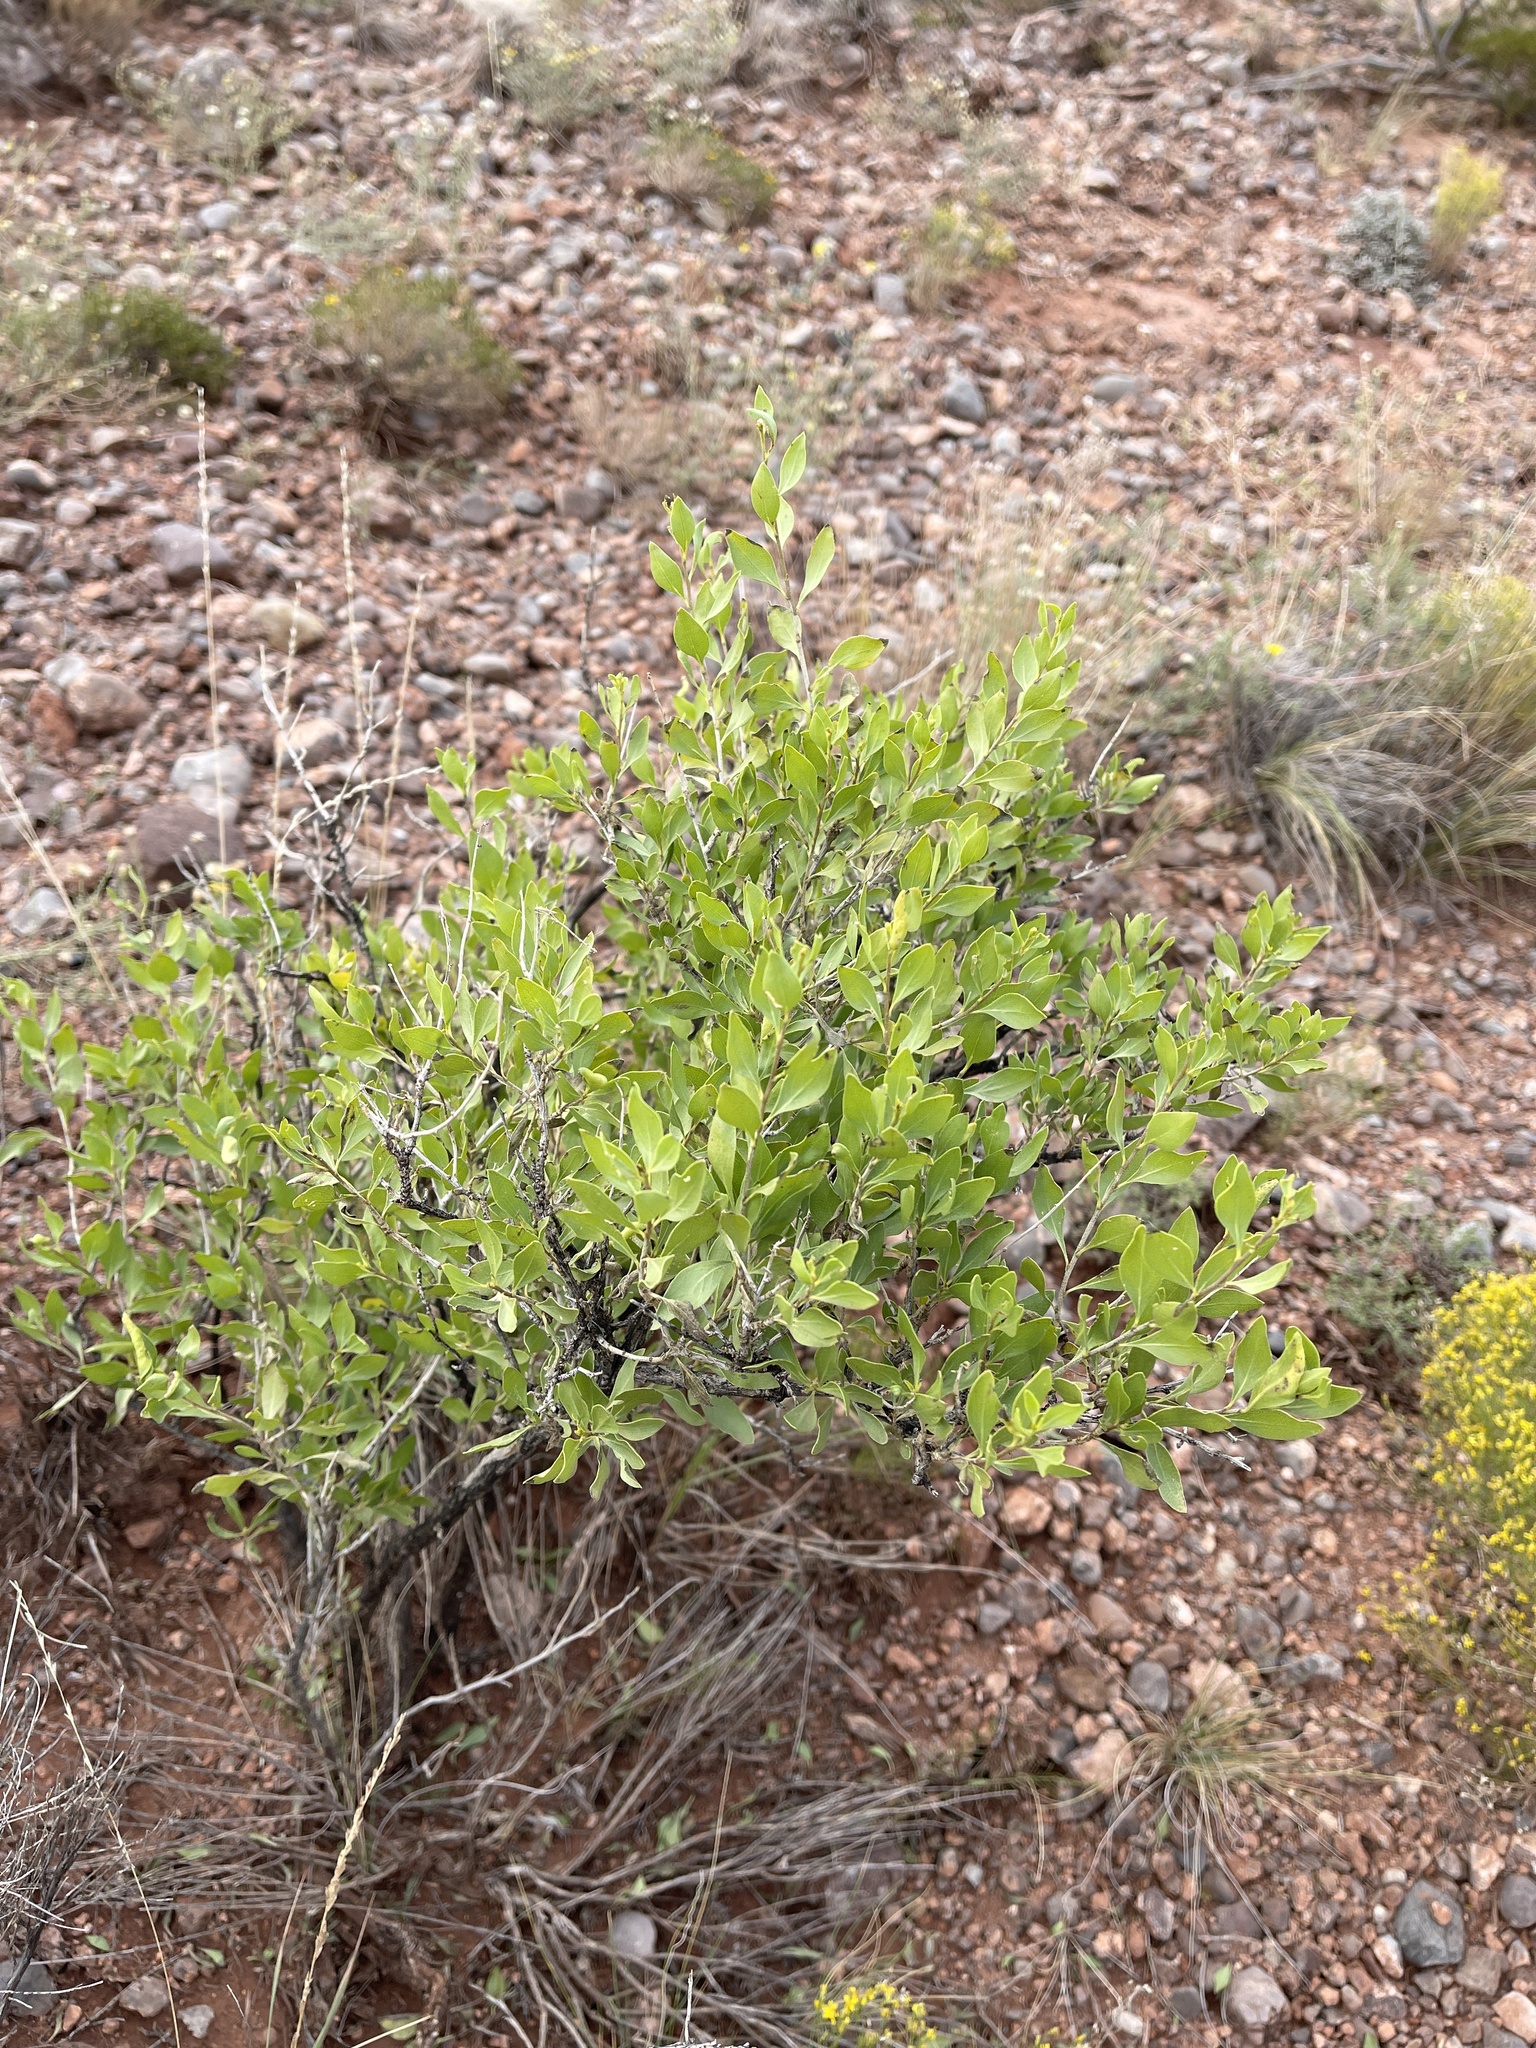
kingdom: Plantae
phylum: Tracheophyta
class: Magnoliopsida
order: Asterales
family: Asteraceae
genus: Flourensia
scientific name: Flourensia cernua
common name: Varnishbush
